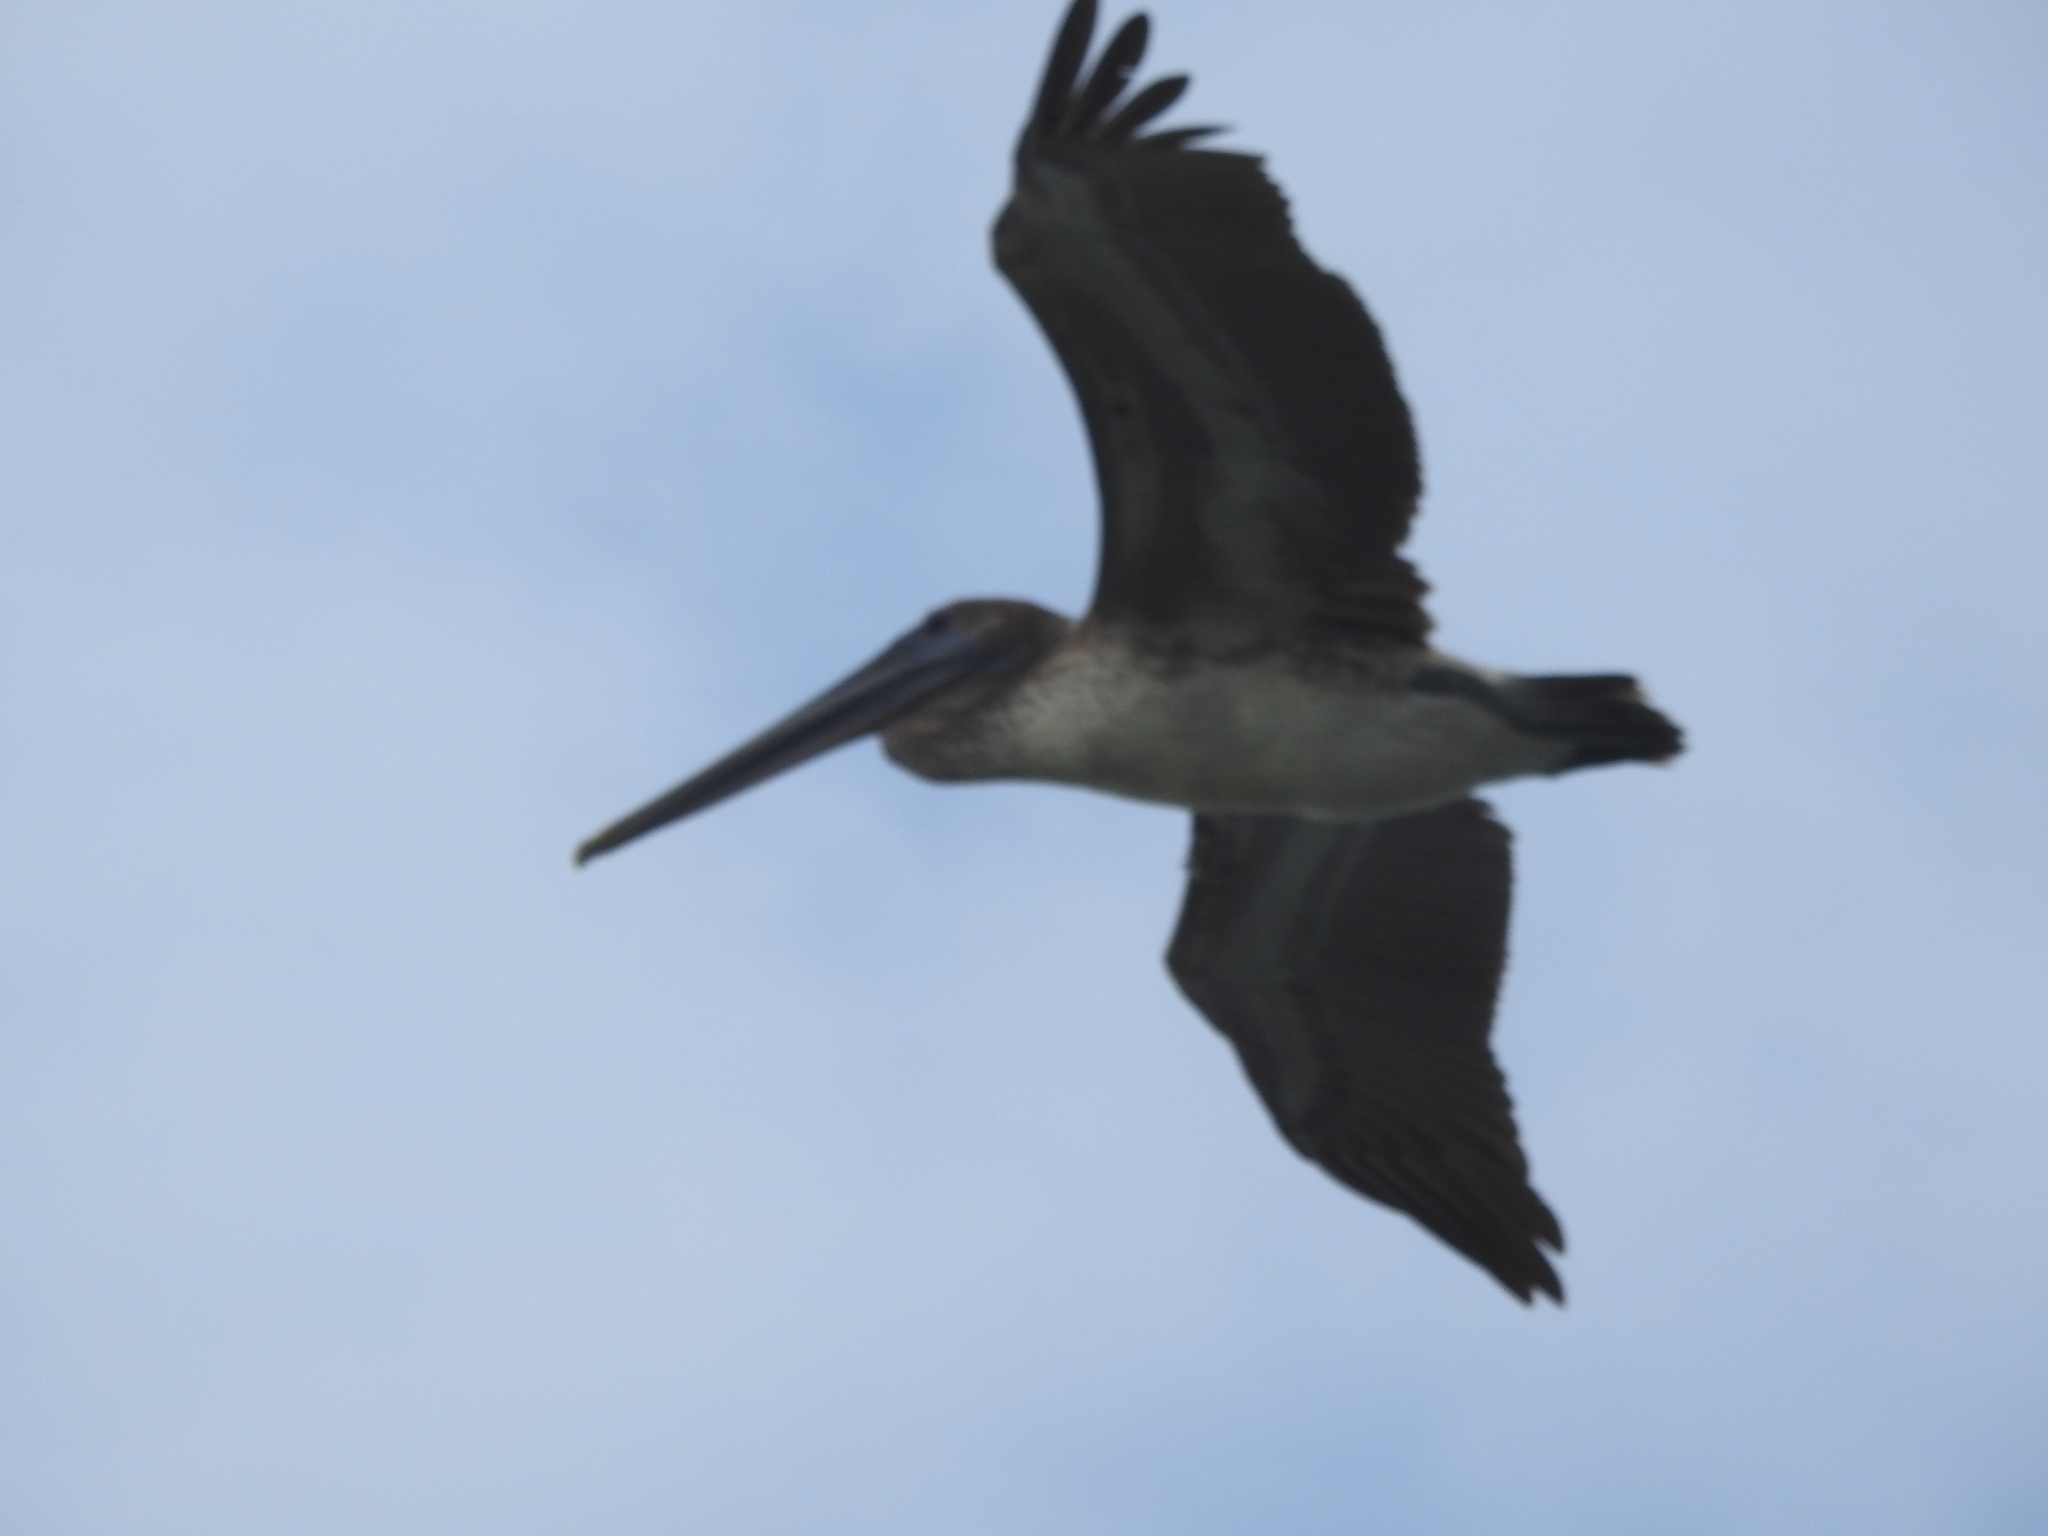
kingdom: Animalia
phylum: Chordata
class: Aves
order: Pelecaniformes
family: Pelecanidae
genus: Pelecanus
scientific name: Pelecanus occidentalis
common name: Brown pelican
